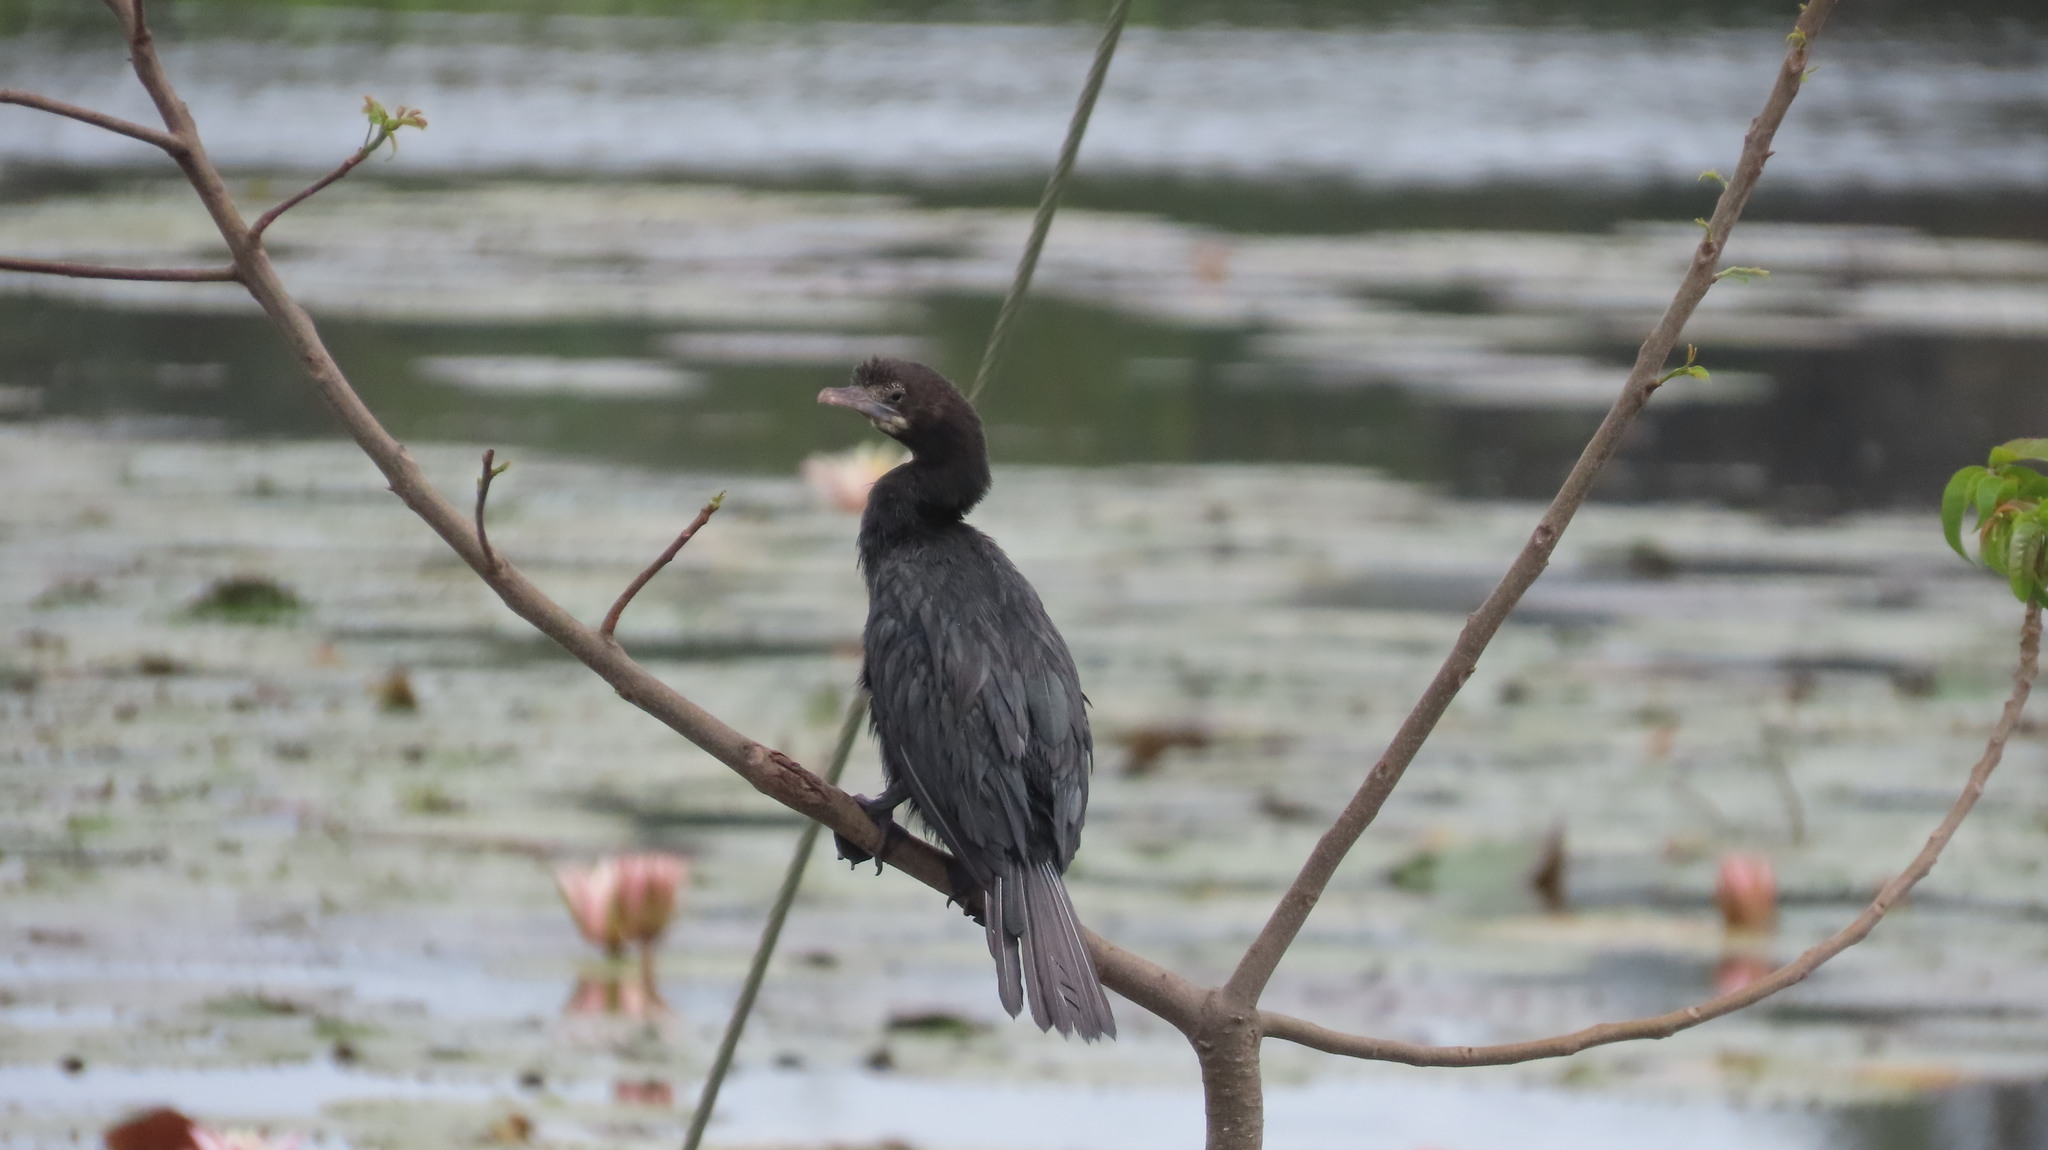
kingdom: Animalia
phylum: Chordata
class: Aves
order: Suliformes
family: Phalacrocoracidae
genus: Microcarbo
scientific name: Microcarbo niger
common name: Little cormorant
